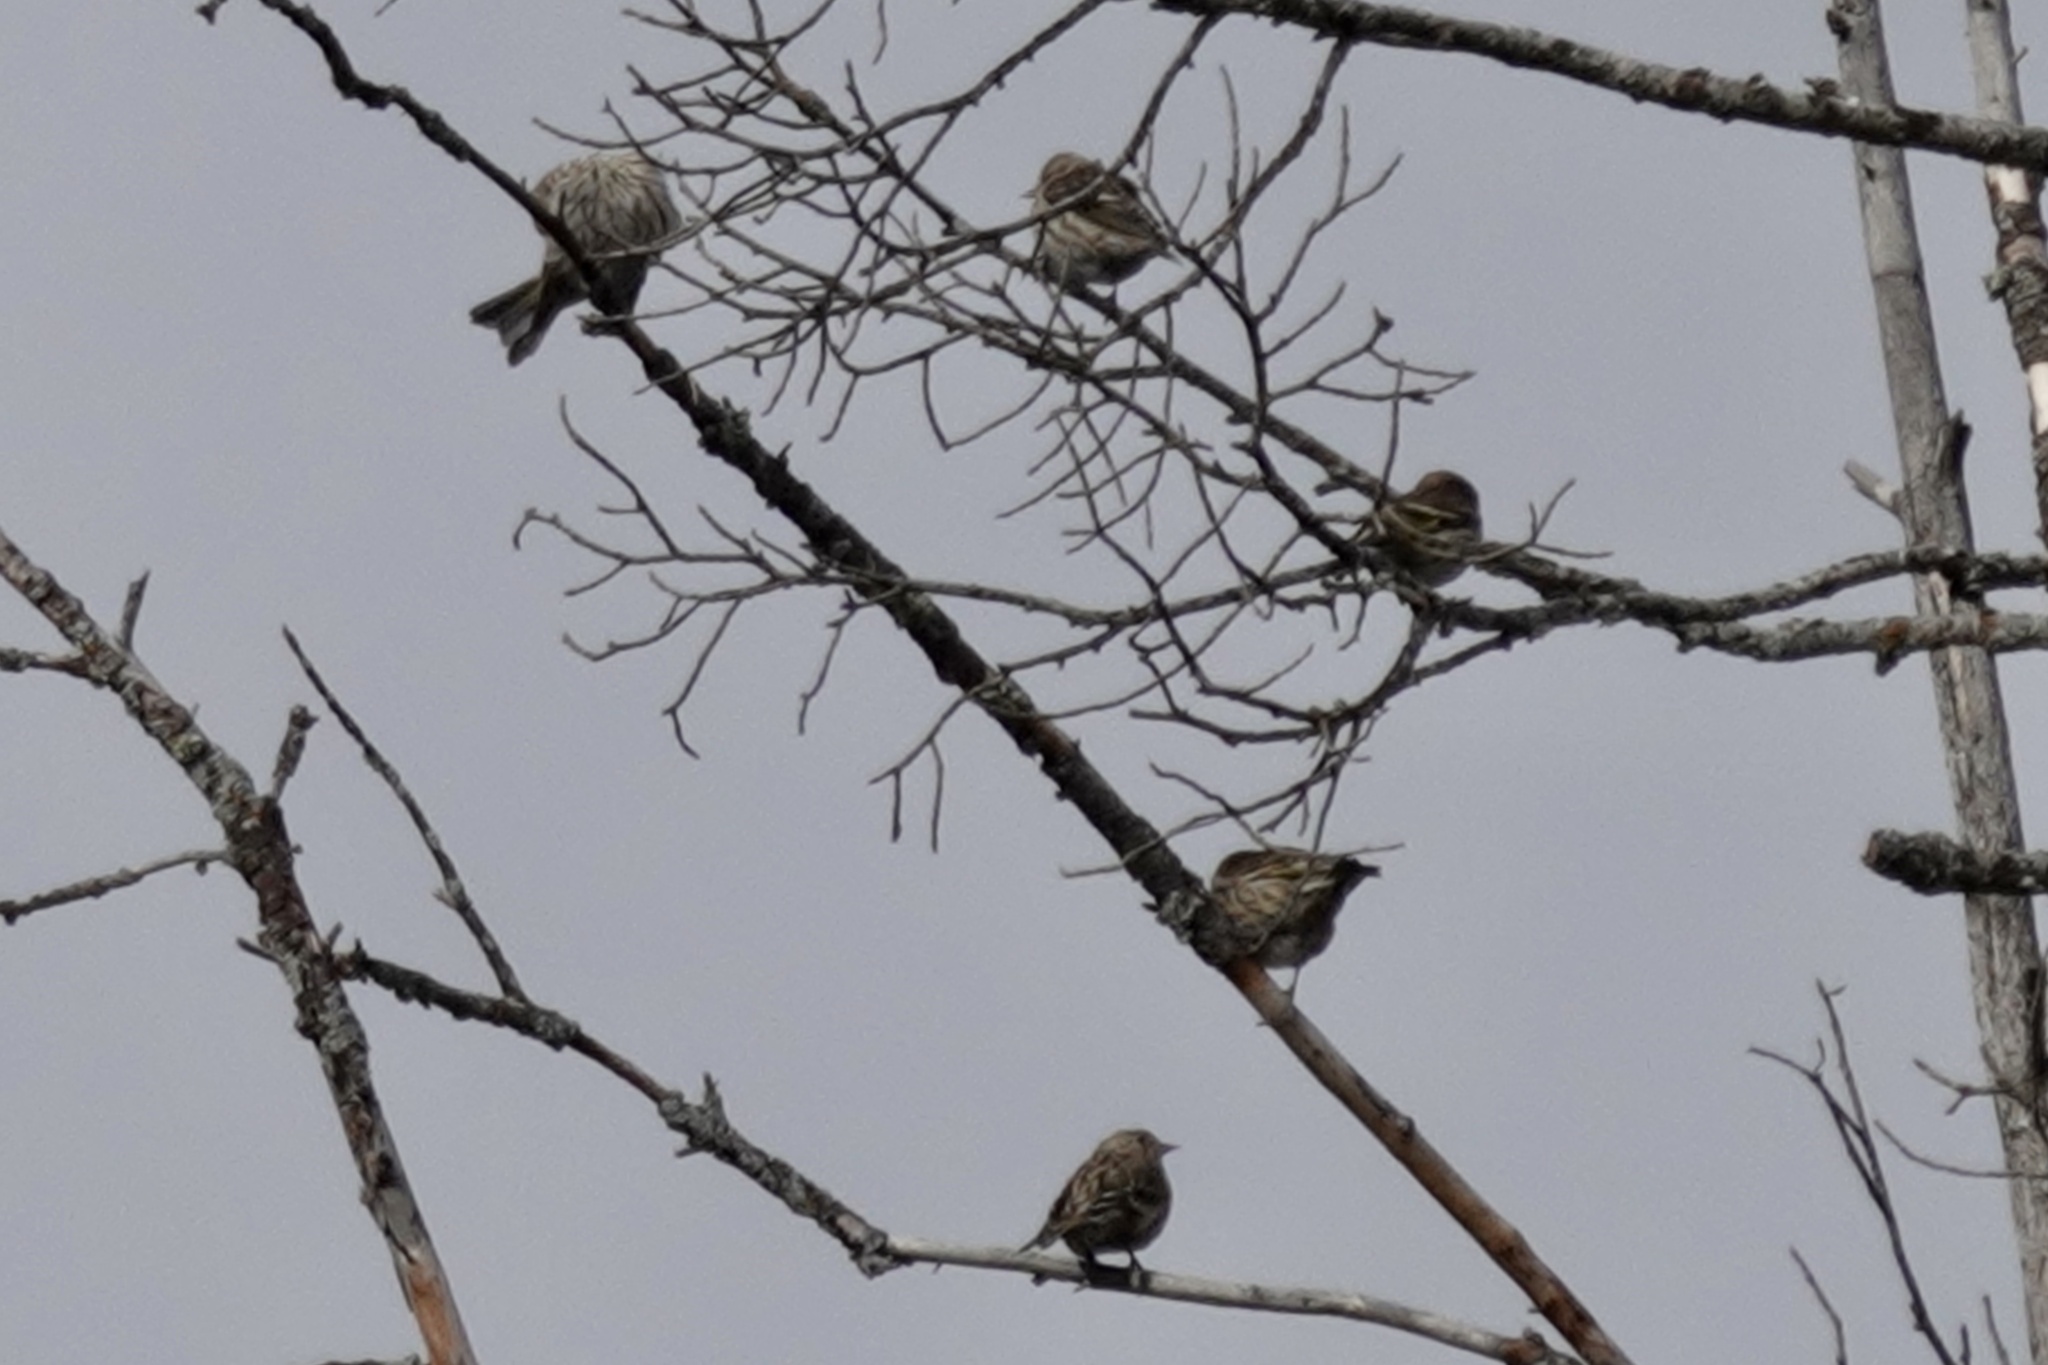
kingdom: Animalia
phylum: Chordata
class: Aves
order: Passeriformes
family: Fringillidae
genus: Haemorhous
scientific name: Haemorhous cassinii
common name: Cassin's finch
